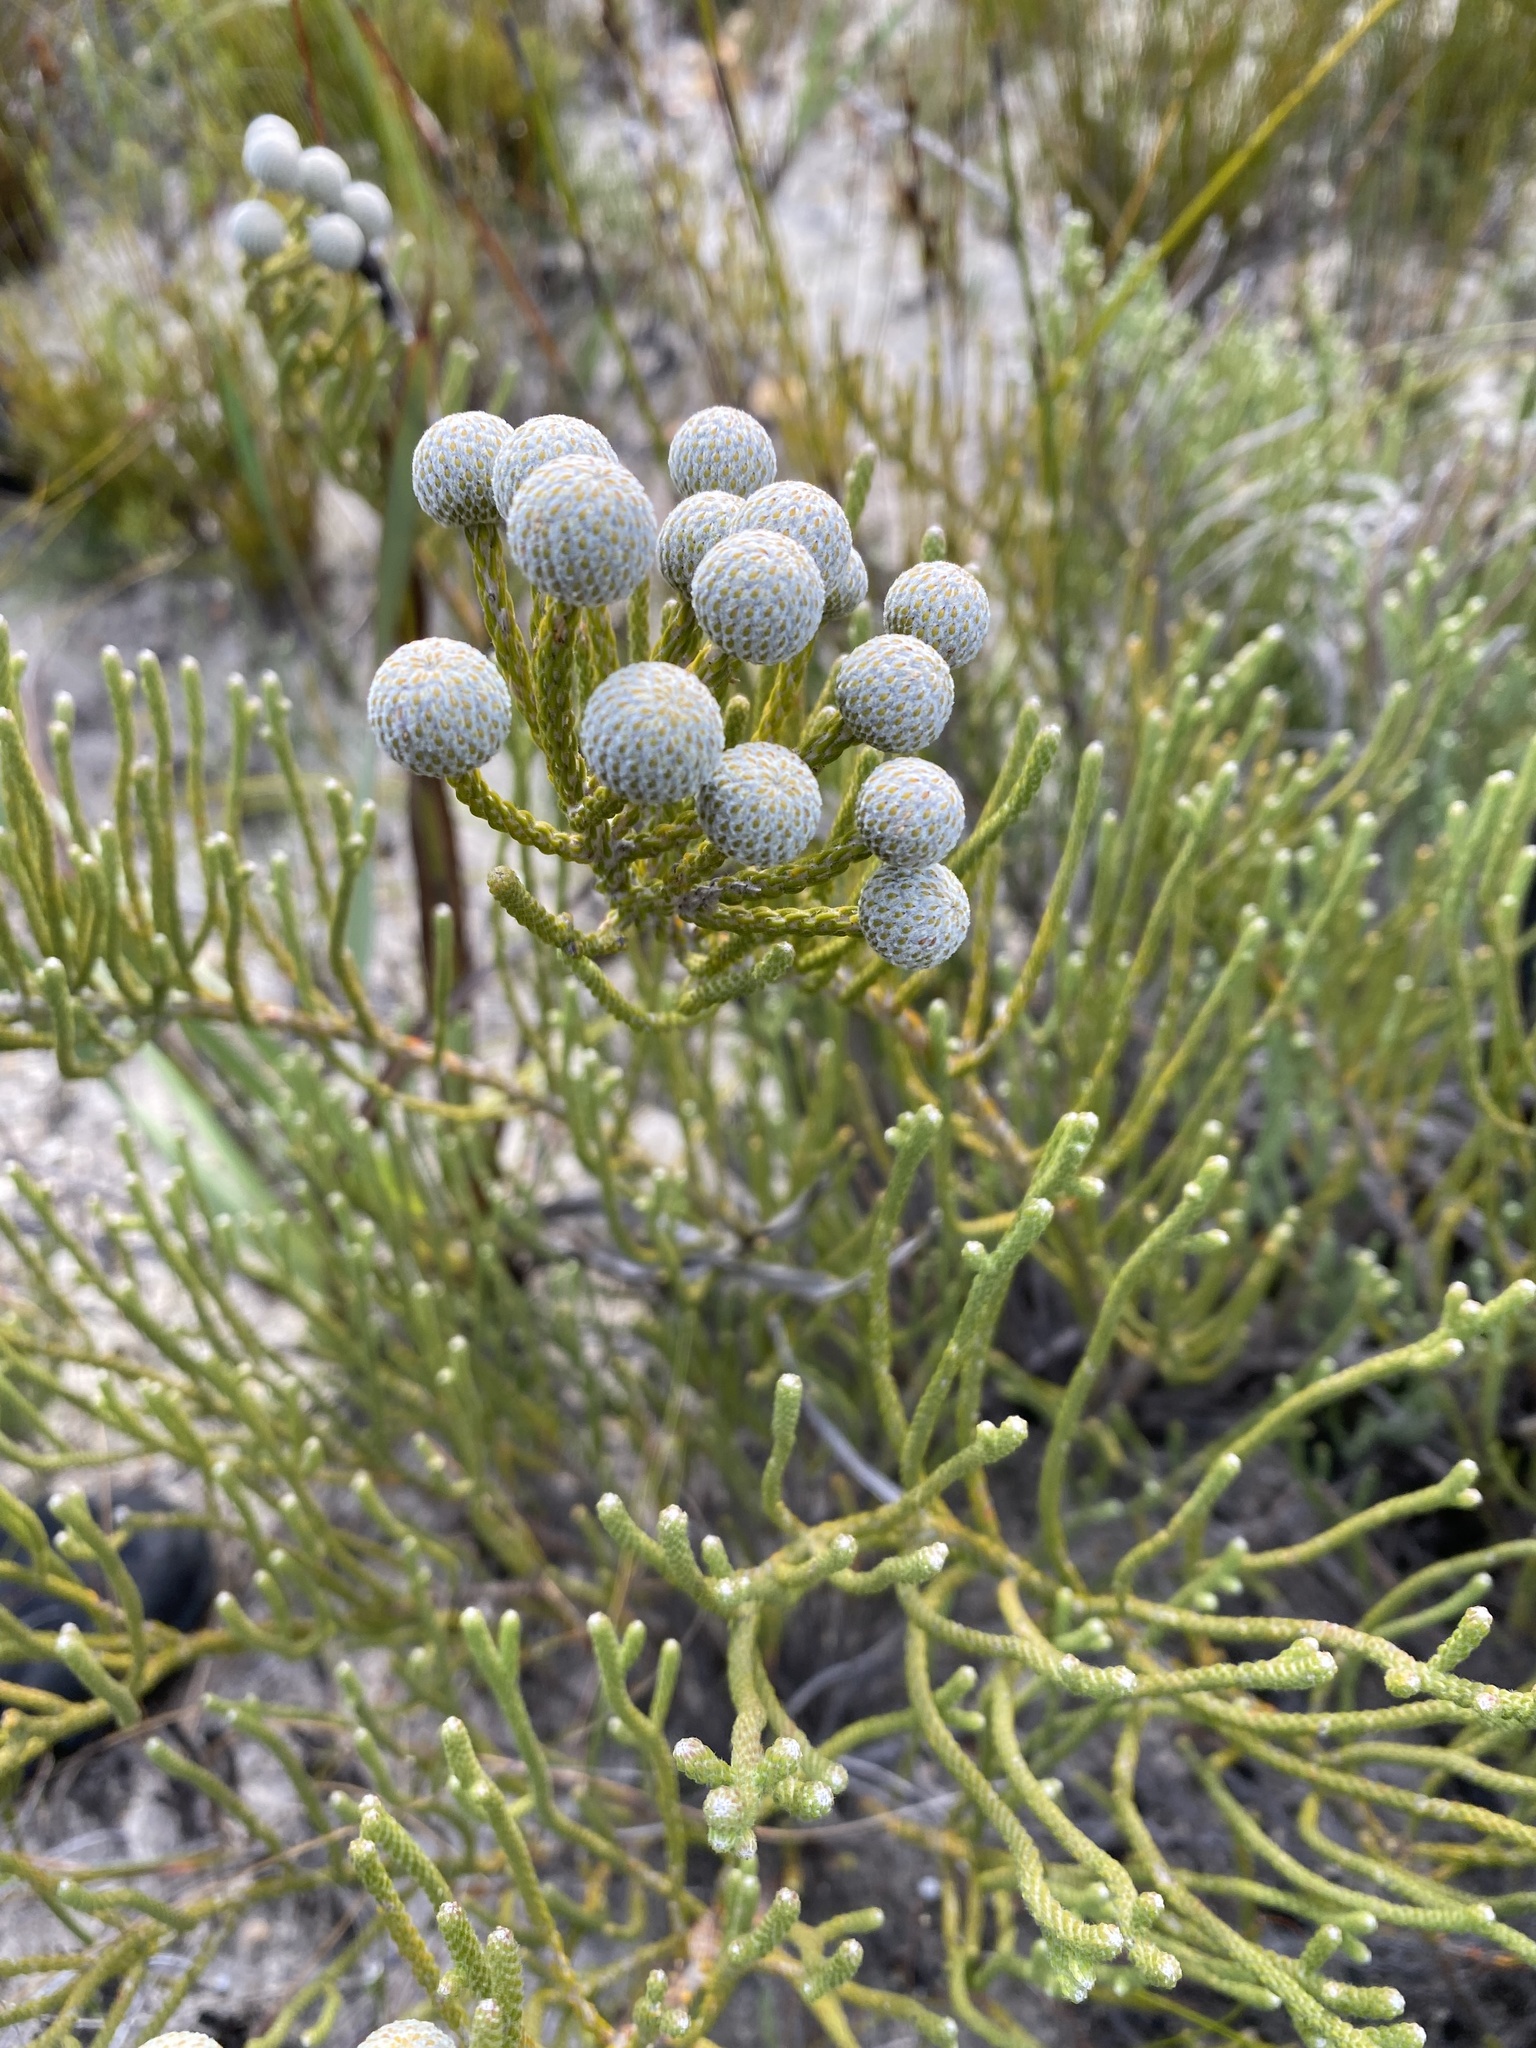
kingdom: Plantae
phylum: Tracheophyta
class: Magnoliopsida
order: Bruniales
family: Bruniaceae
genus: Brunia
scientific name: Brunia noduliflora
